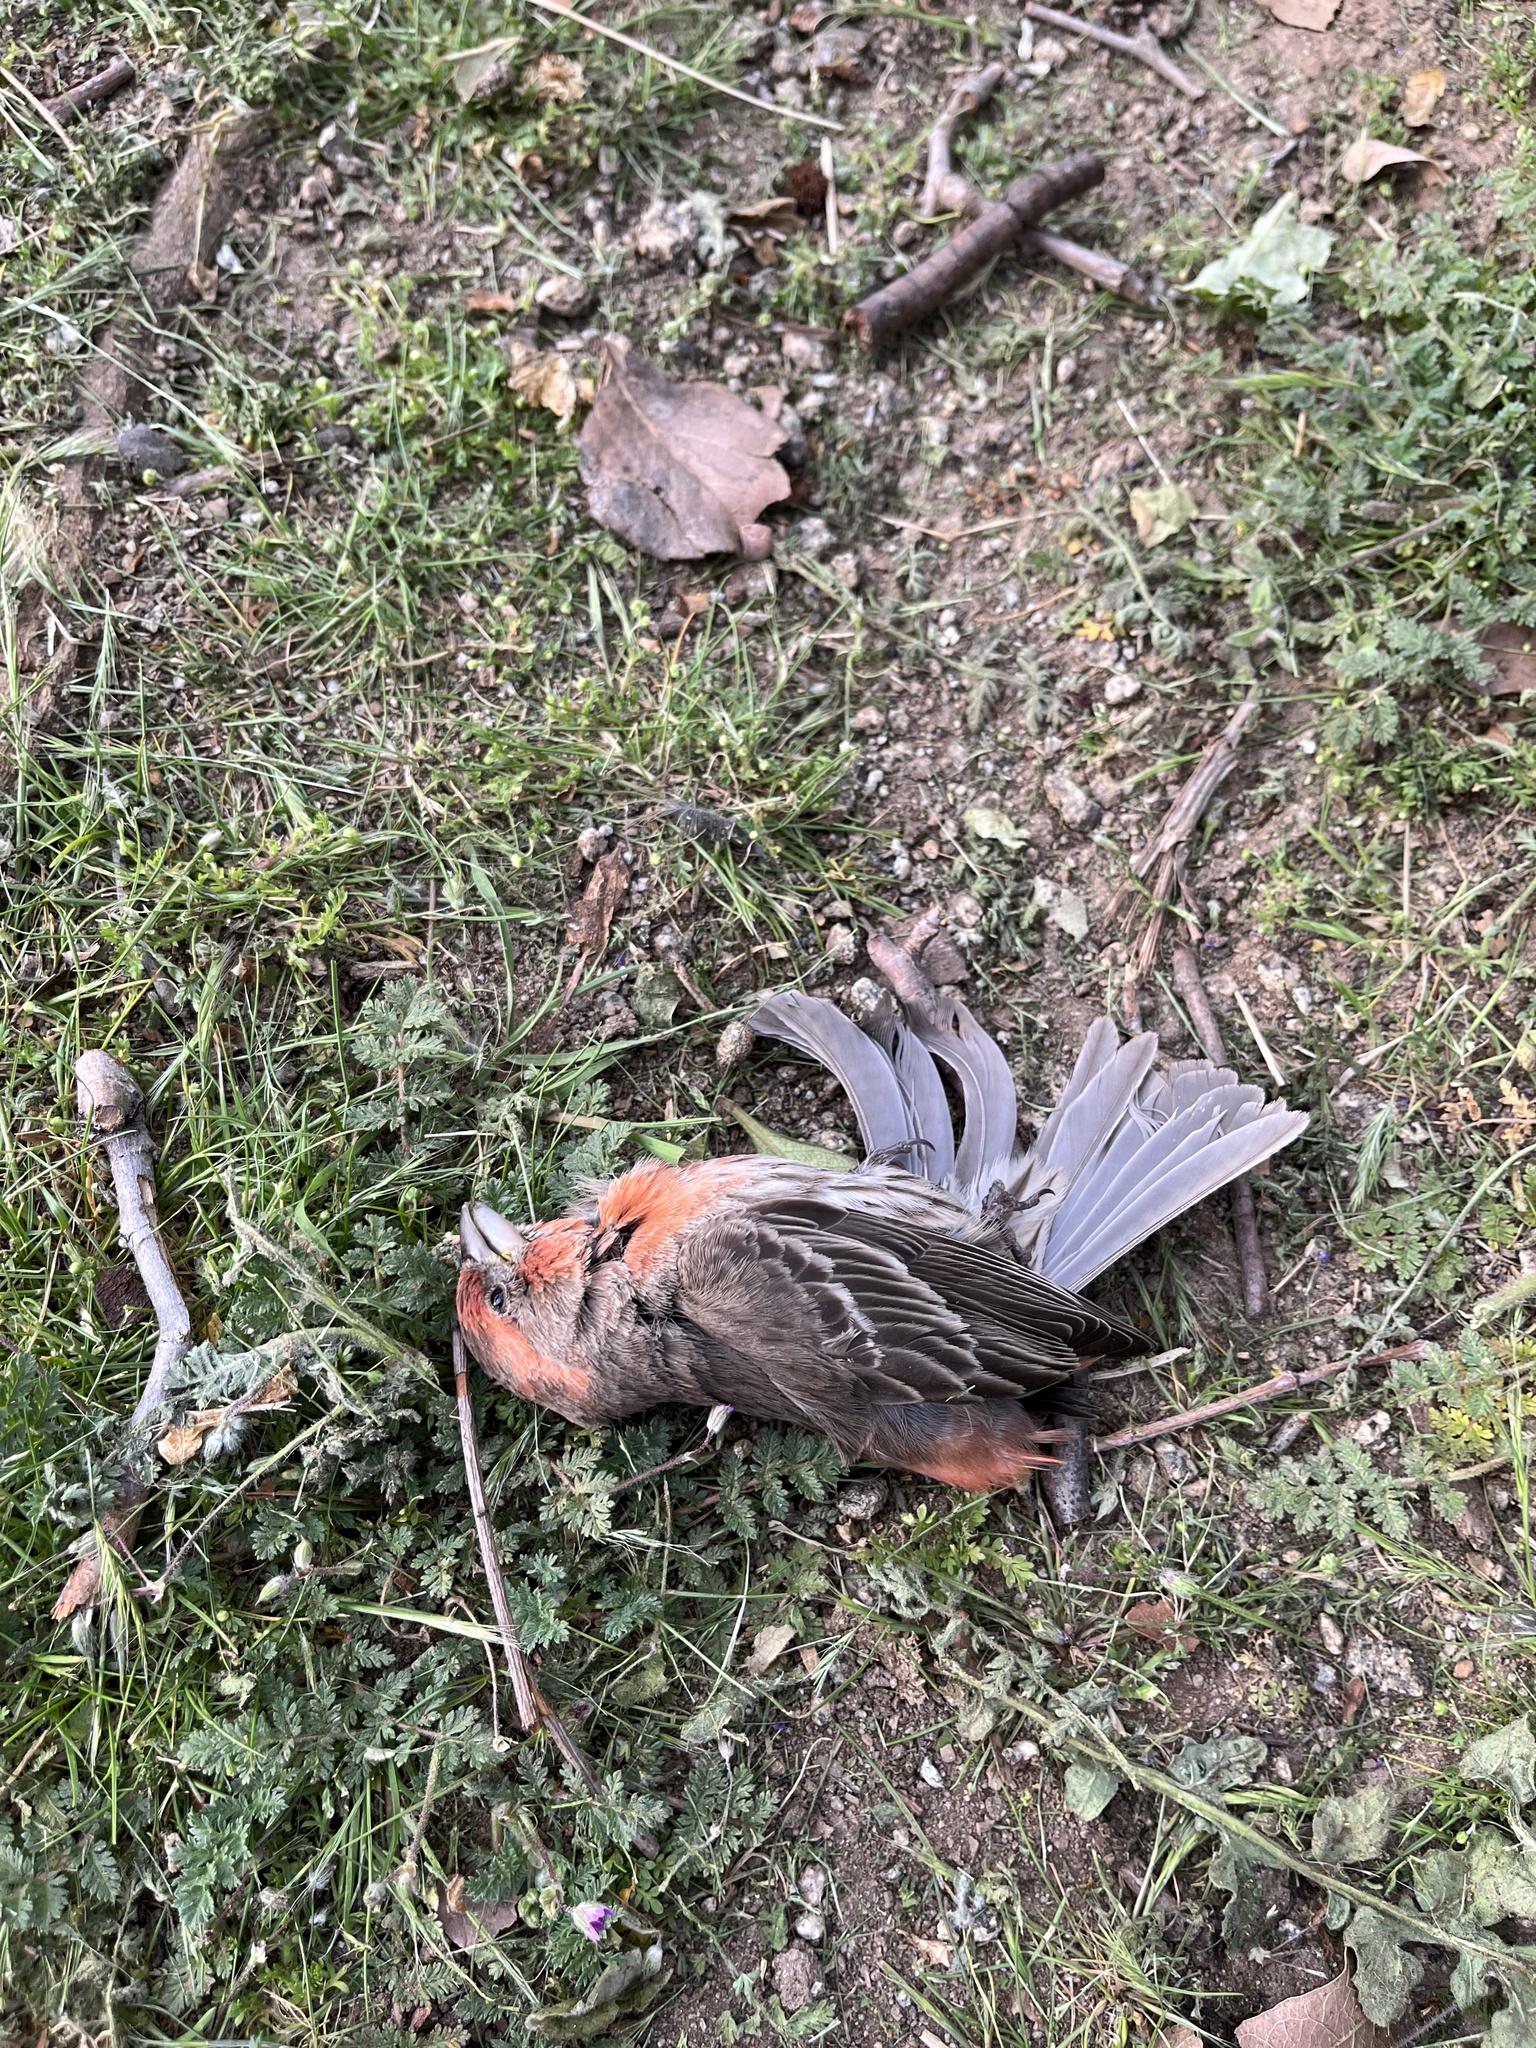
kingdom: Animalia
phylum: Chordata
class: Aves
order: Passeriformes
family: Fringillidae
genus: Haemorhous
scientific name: Haemorhous mexicanus
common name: House finch
